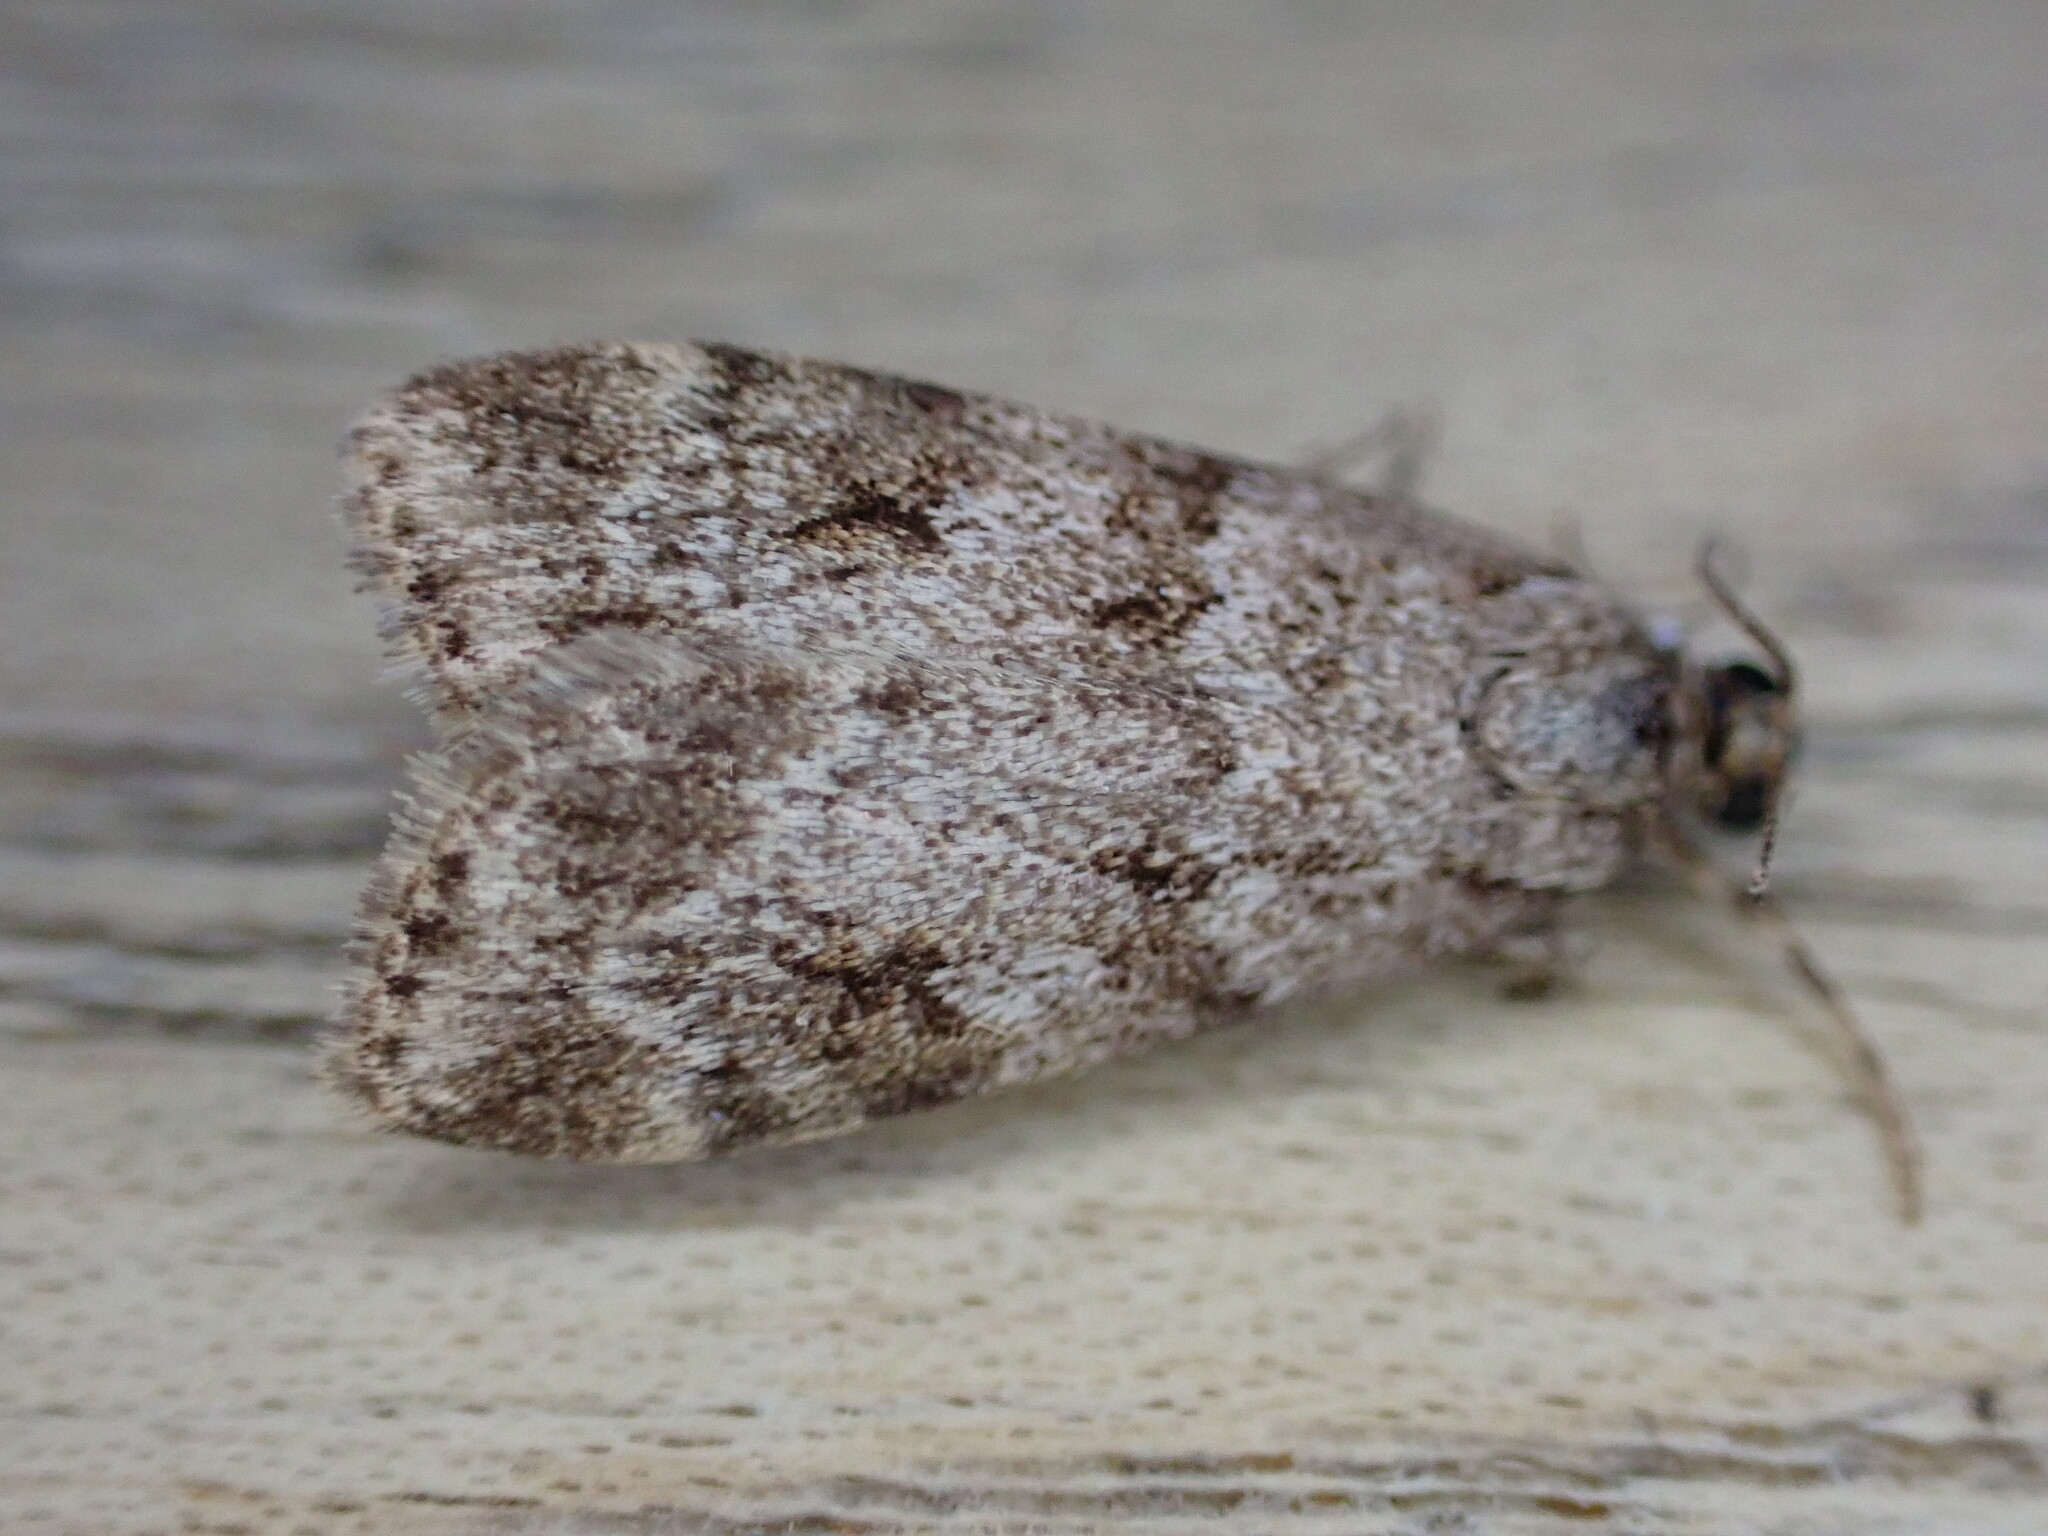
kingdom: Animalia
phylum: Arthropoda
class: Insecta
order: Lepidoptera
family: Crambidae
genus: Scoparia
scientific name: Scoparia ambigualis
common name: Common grey
